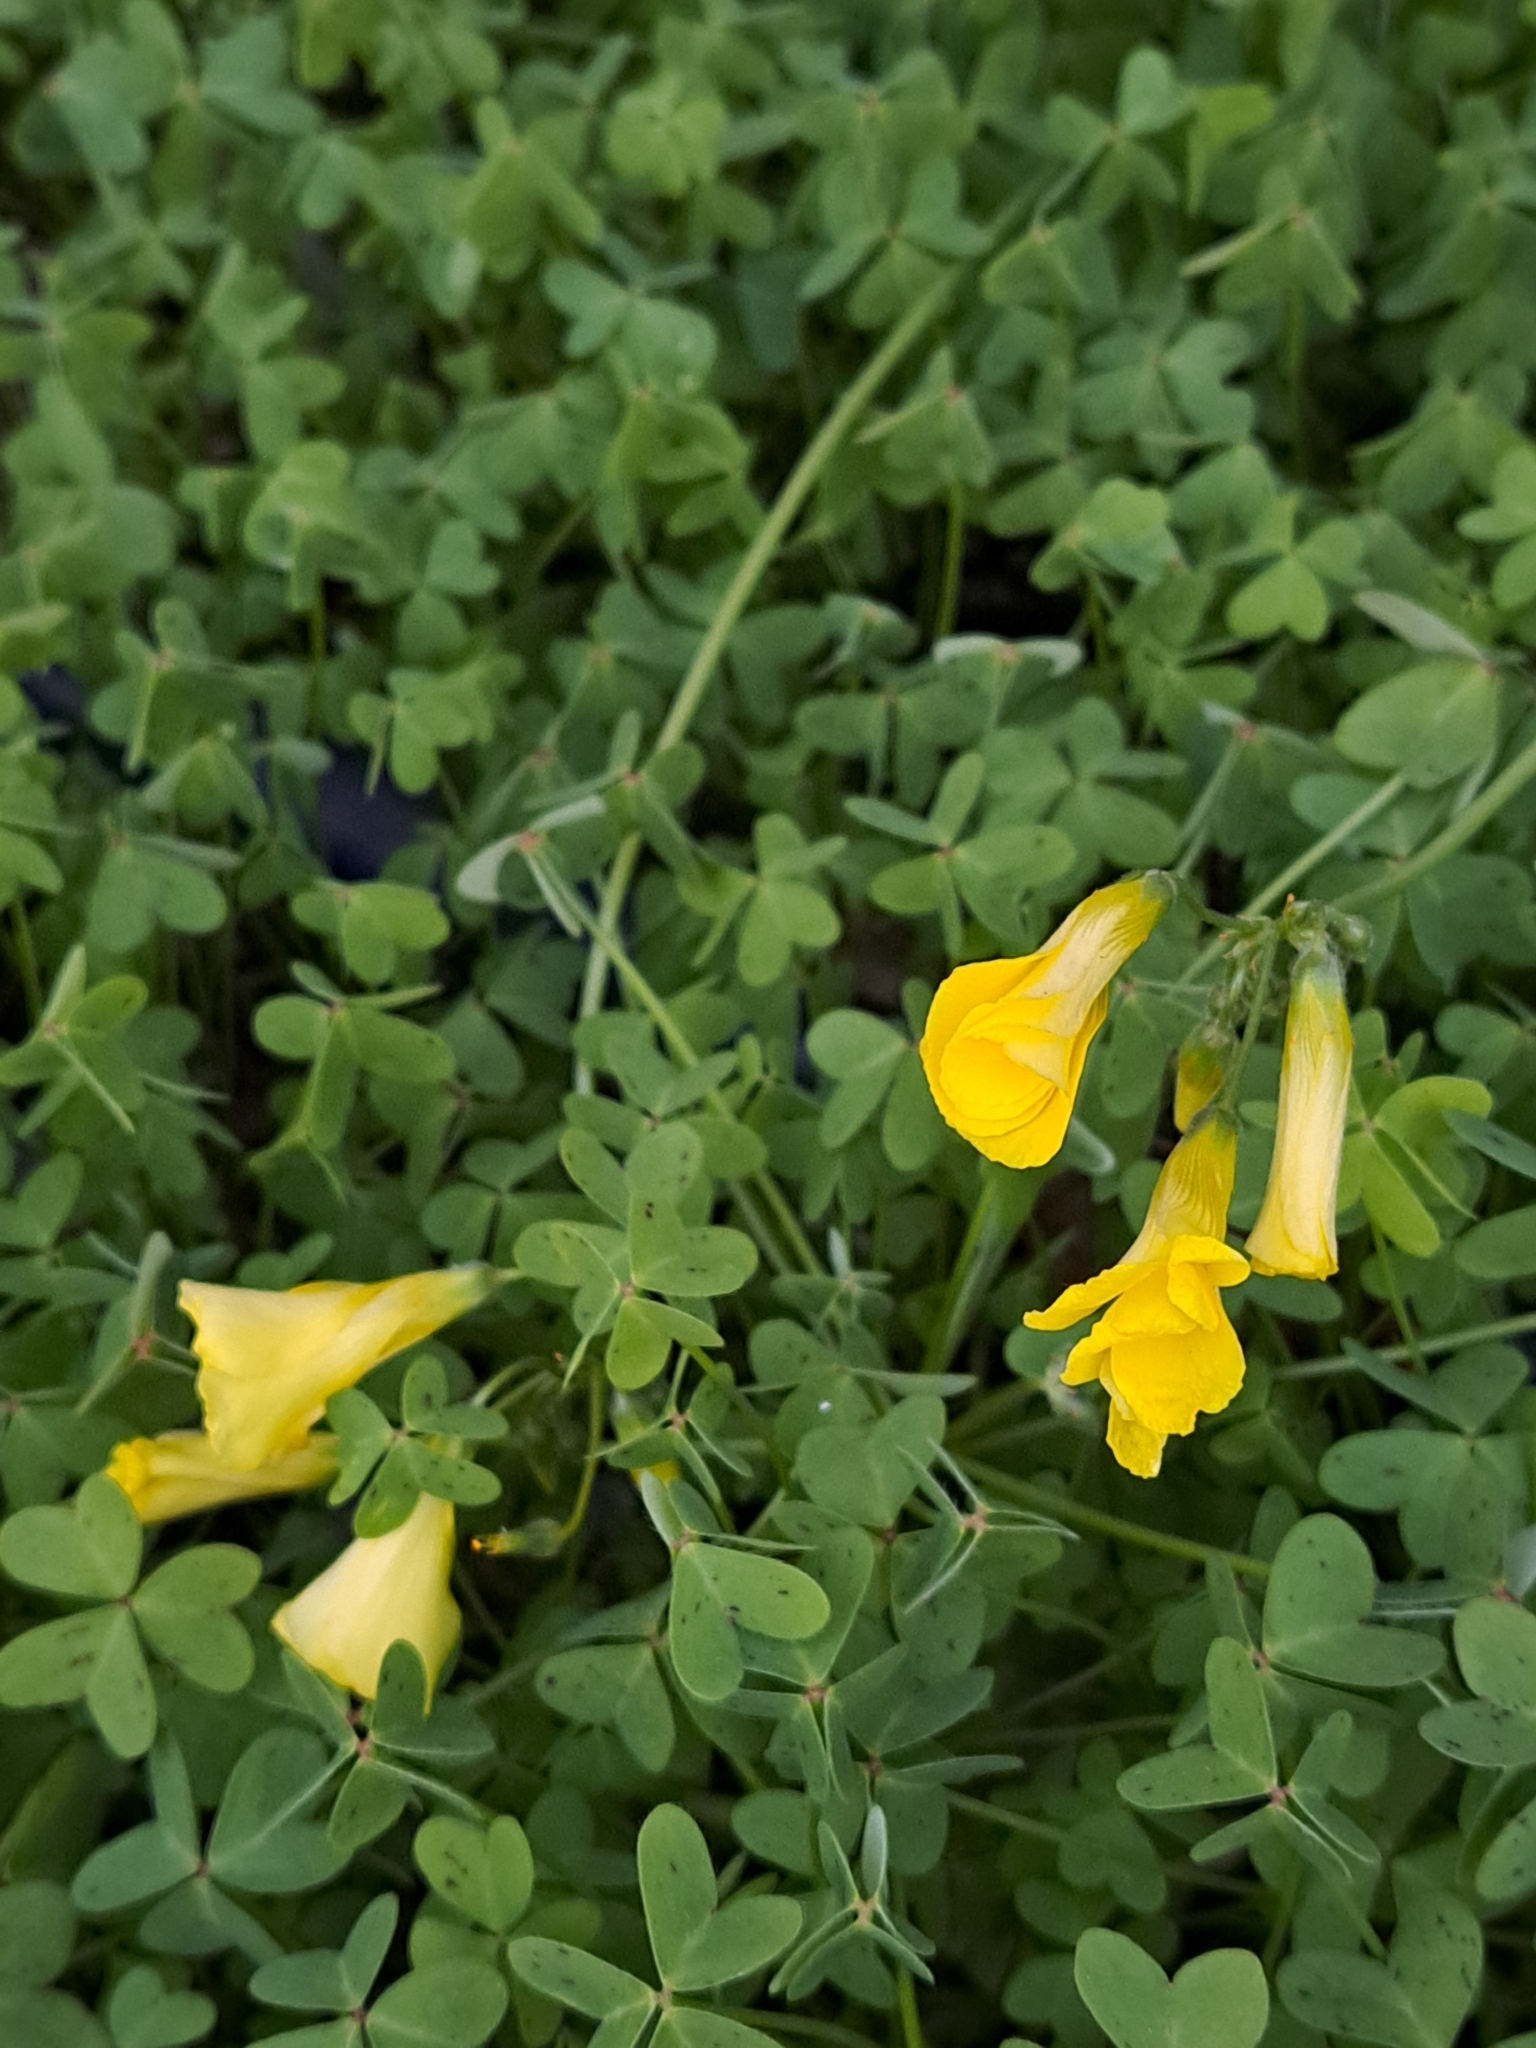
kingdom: Plantae
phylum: Tracheophyta
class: Magnoliopsida
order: Oxalidales
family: Oxalidaceae
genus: Oxalis
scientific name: Oxalis pes-caprae
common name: Bermuda-buttercup
